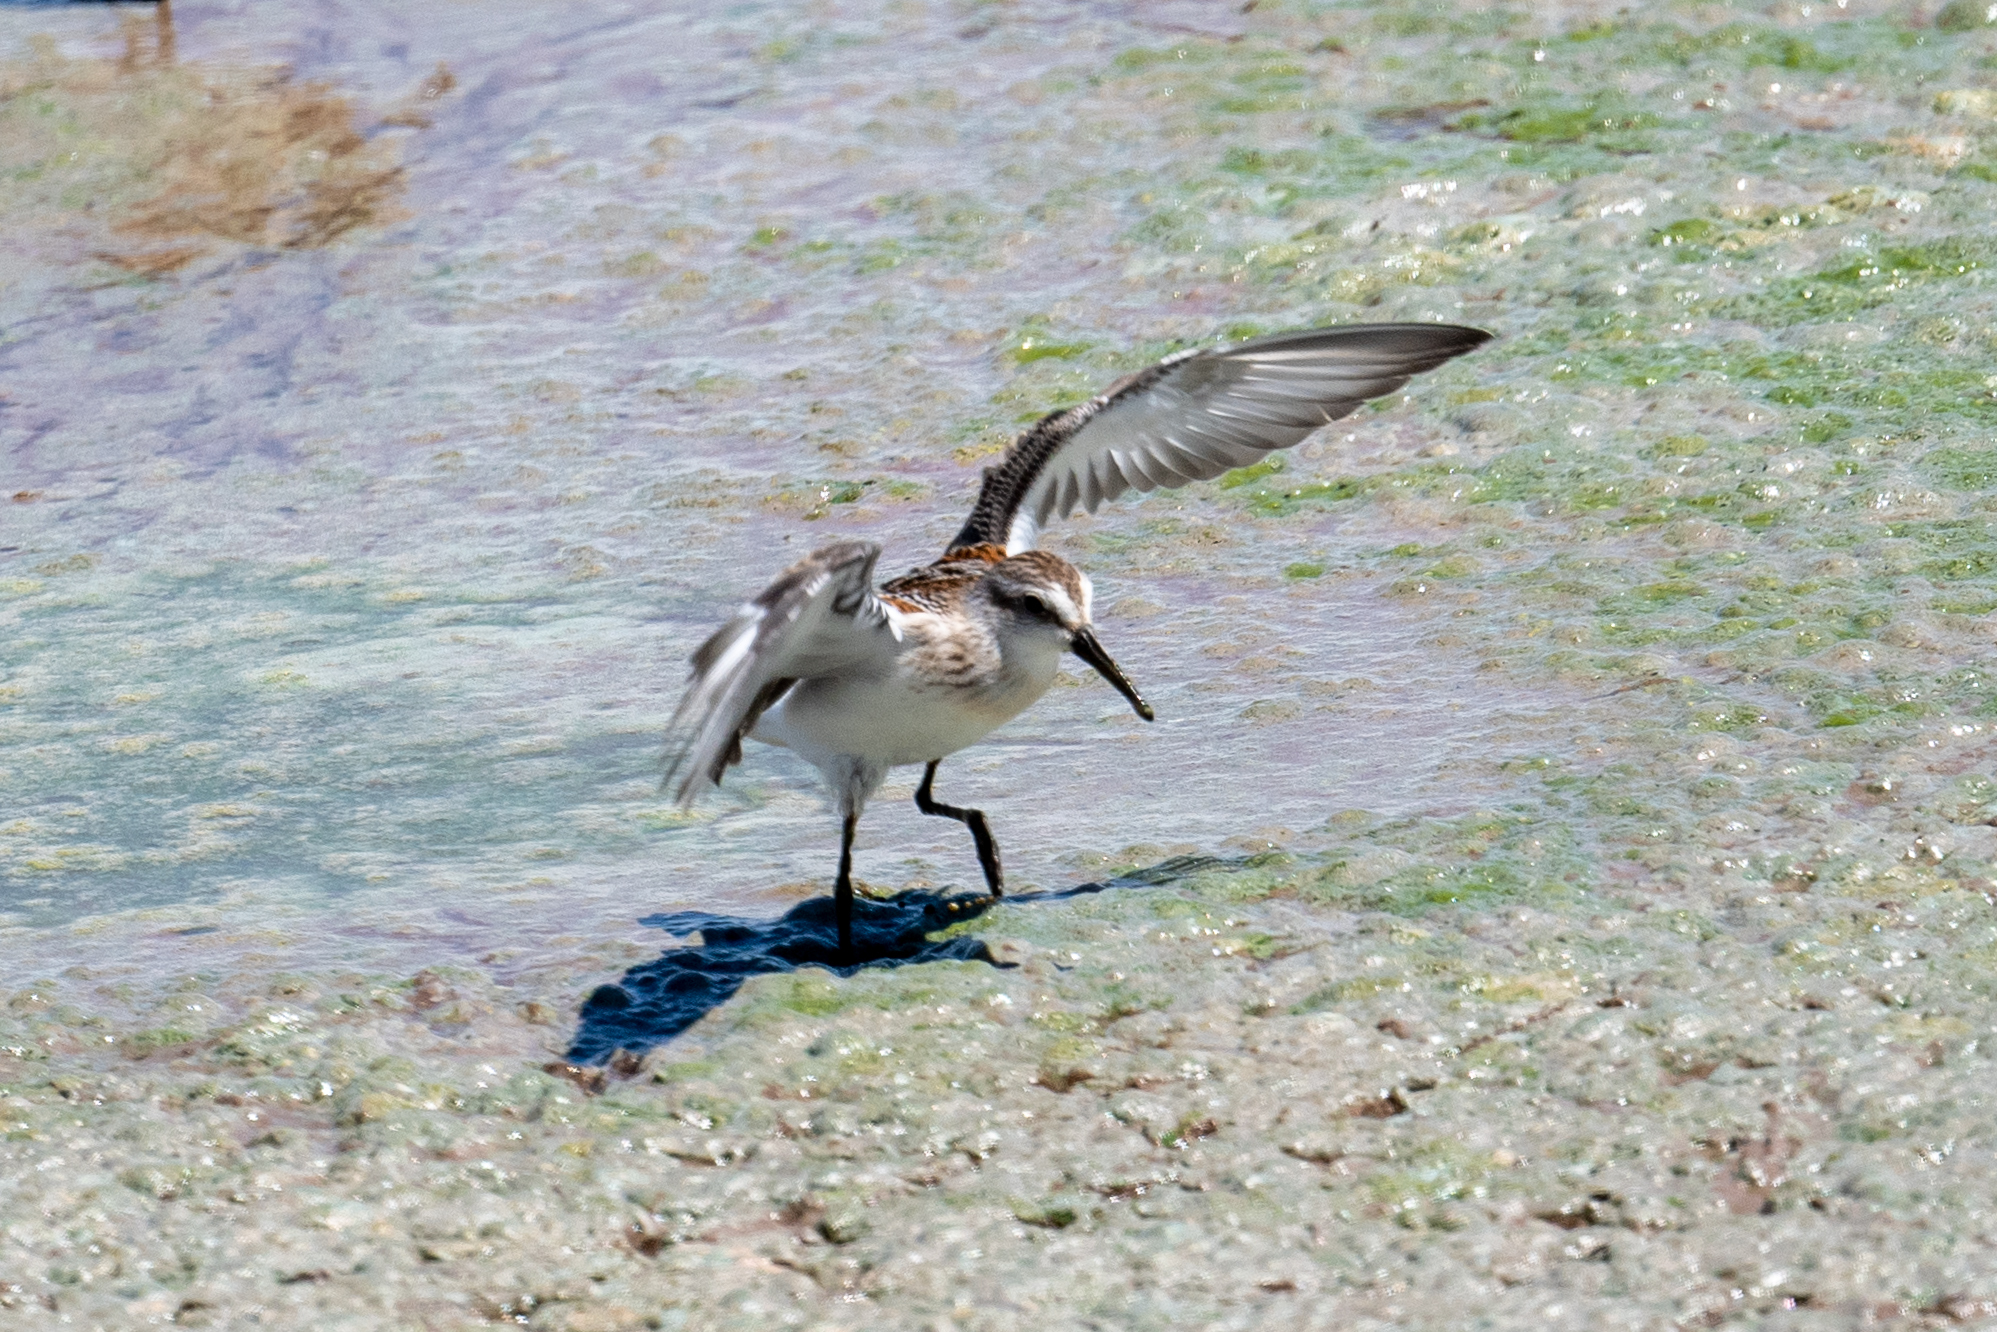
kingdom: Animalia
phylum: Chordata
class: Aves
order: Charadriiformes
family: Scolopacidae
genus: Calidris
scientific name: Calidris mauri
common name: Western sandpiper
